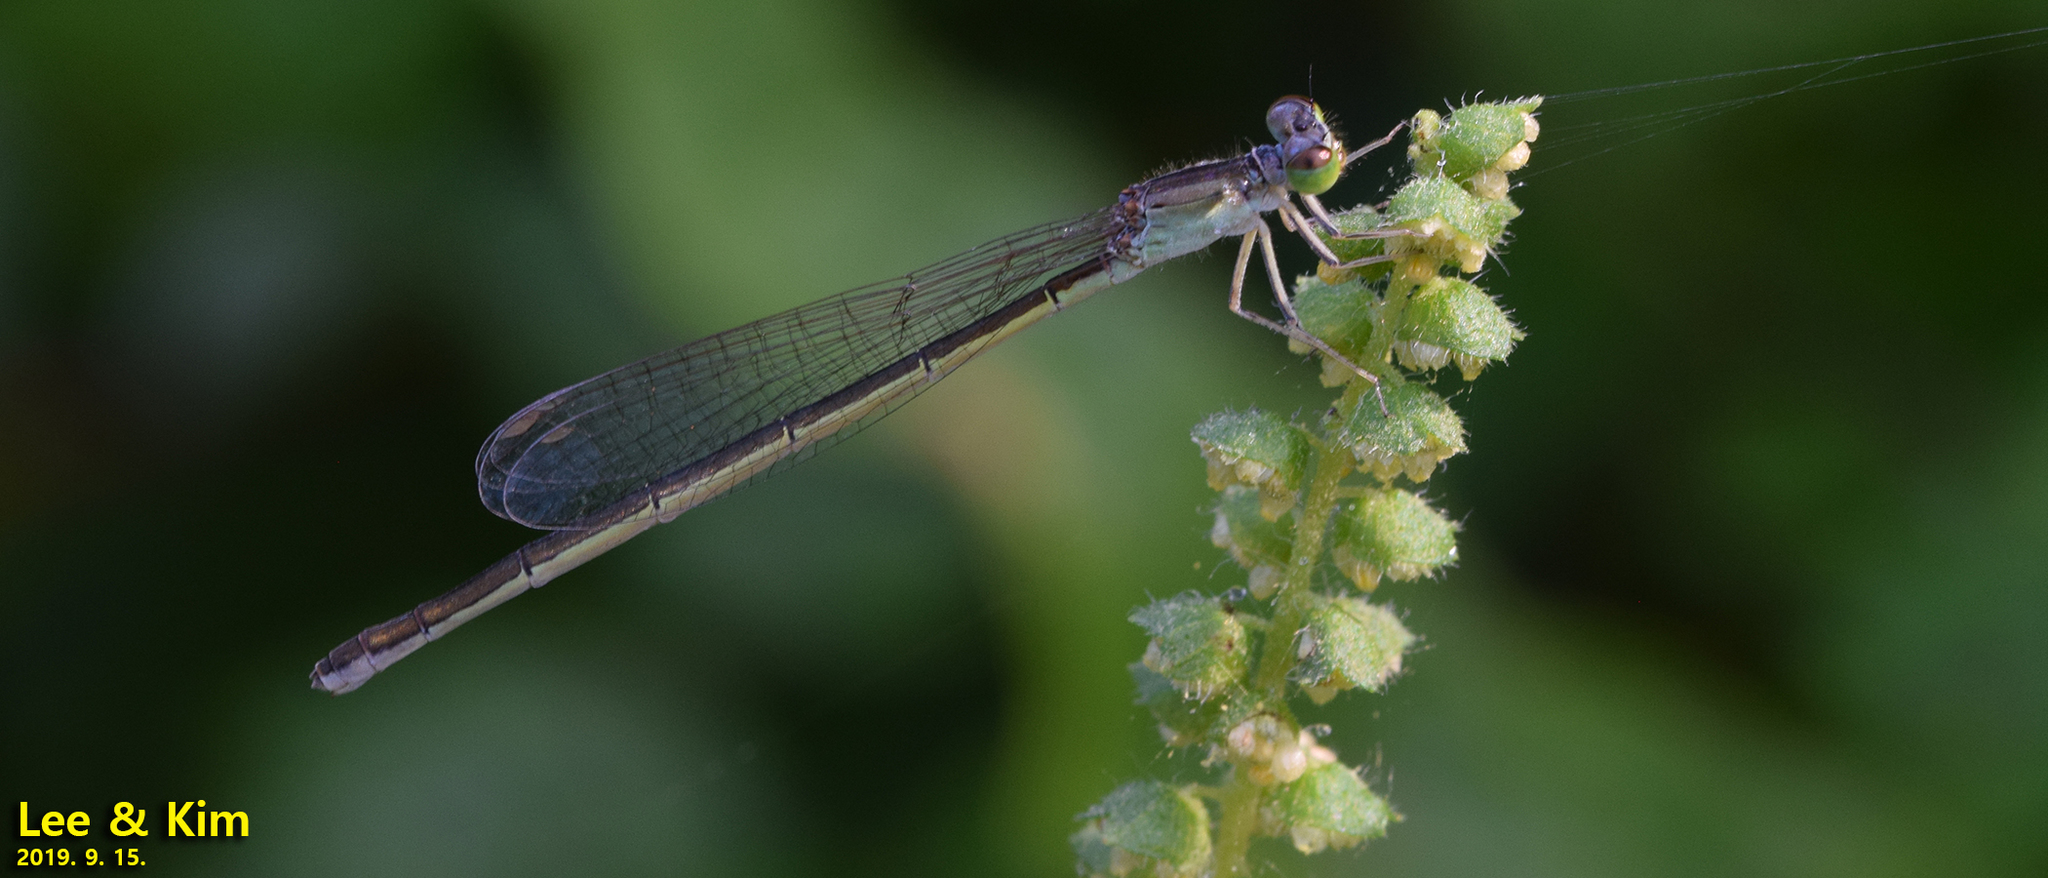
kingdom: Animalia
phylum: Arthropoda
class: Insecta
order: Odonata
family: Coenagrionidae
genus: Ischnura
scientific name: Ischnura asiatica
